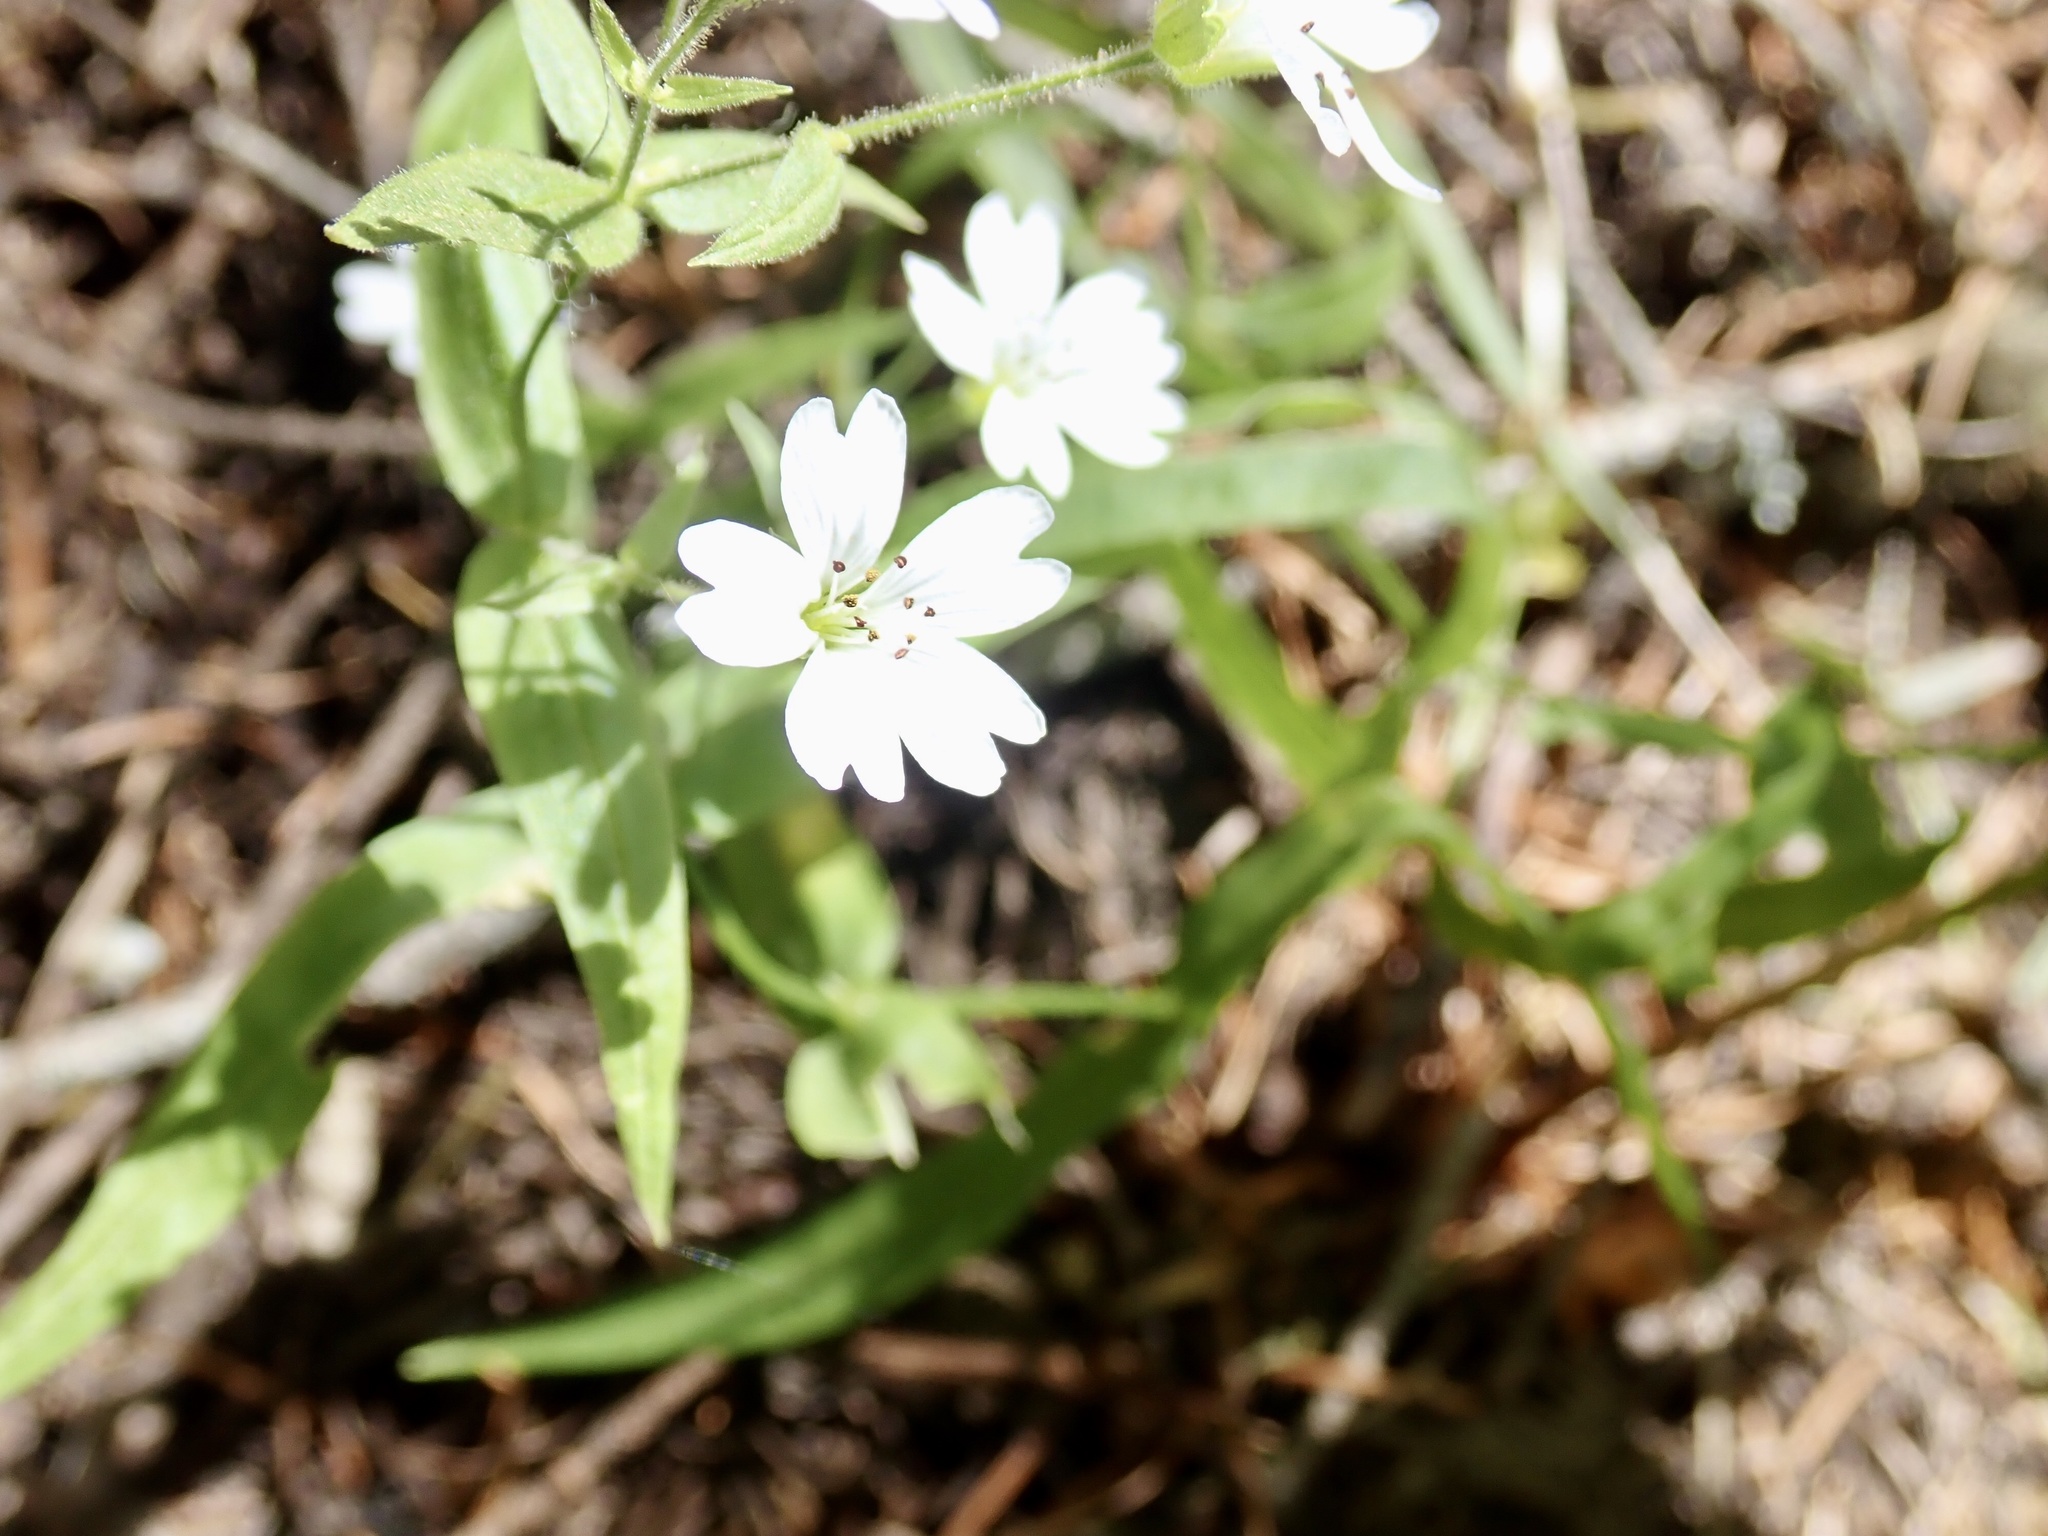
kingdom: Plantae
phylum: Tracheophyta
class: Magnoliopsida
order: Caryophyllales
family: Caryophyllaceae
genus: Schizotechium
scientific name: Schizotechium jamesianum
